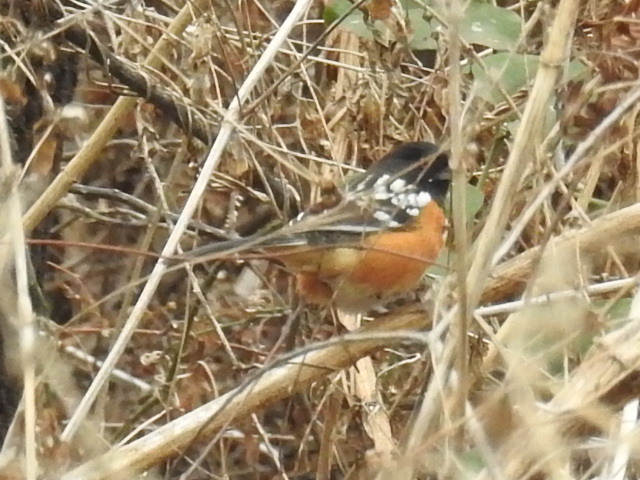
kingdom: Animalia
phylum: Chordata
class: Aves
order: Passeriformes
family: Passerellidae
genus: Pipilo
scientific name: Pipilo maculatus
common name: Spotted towhee
